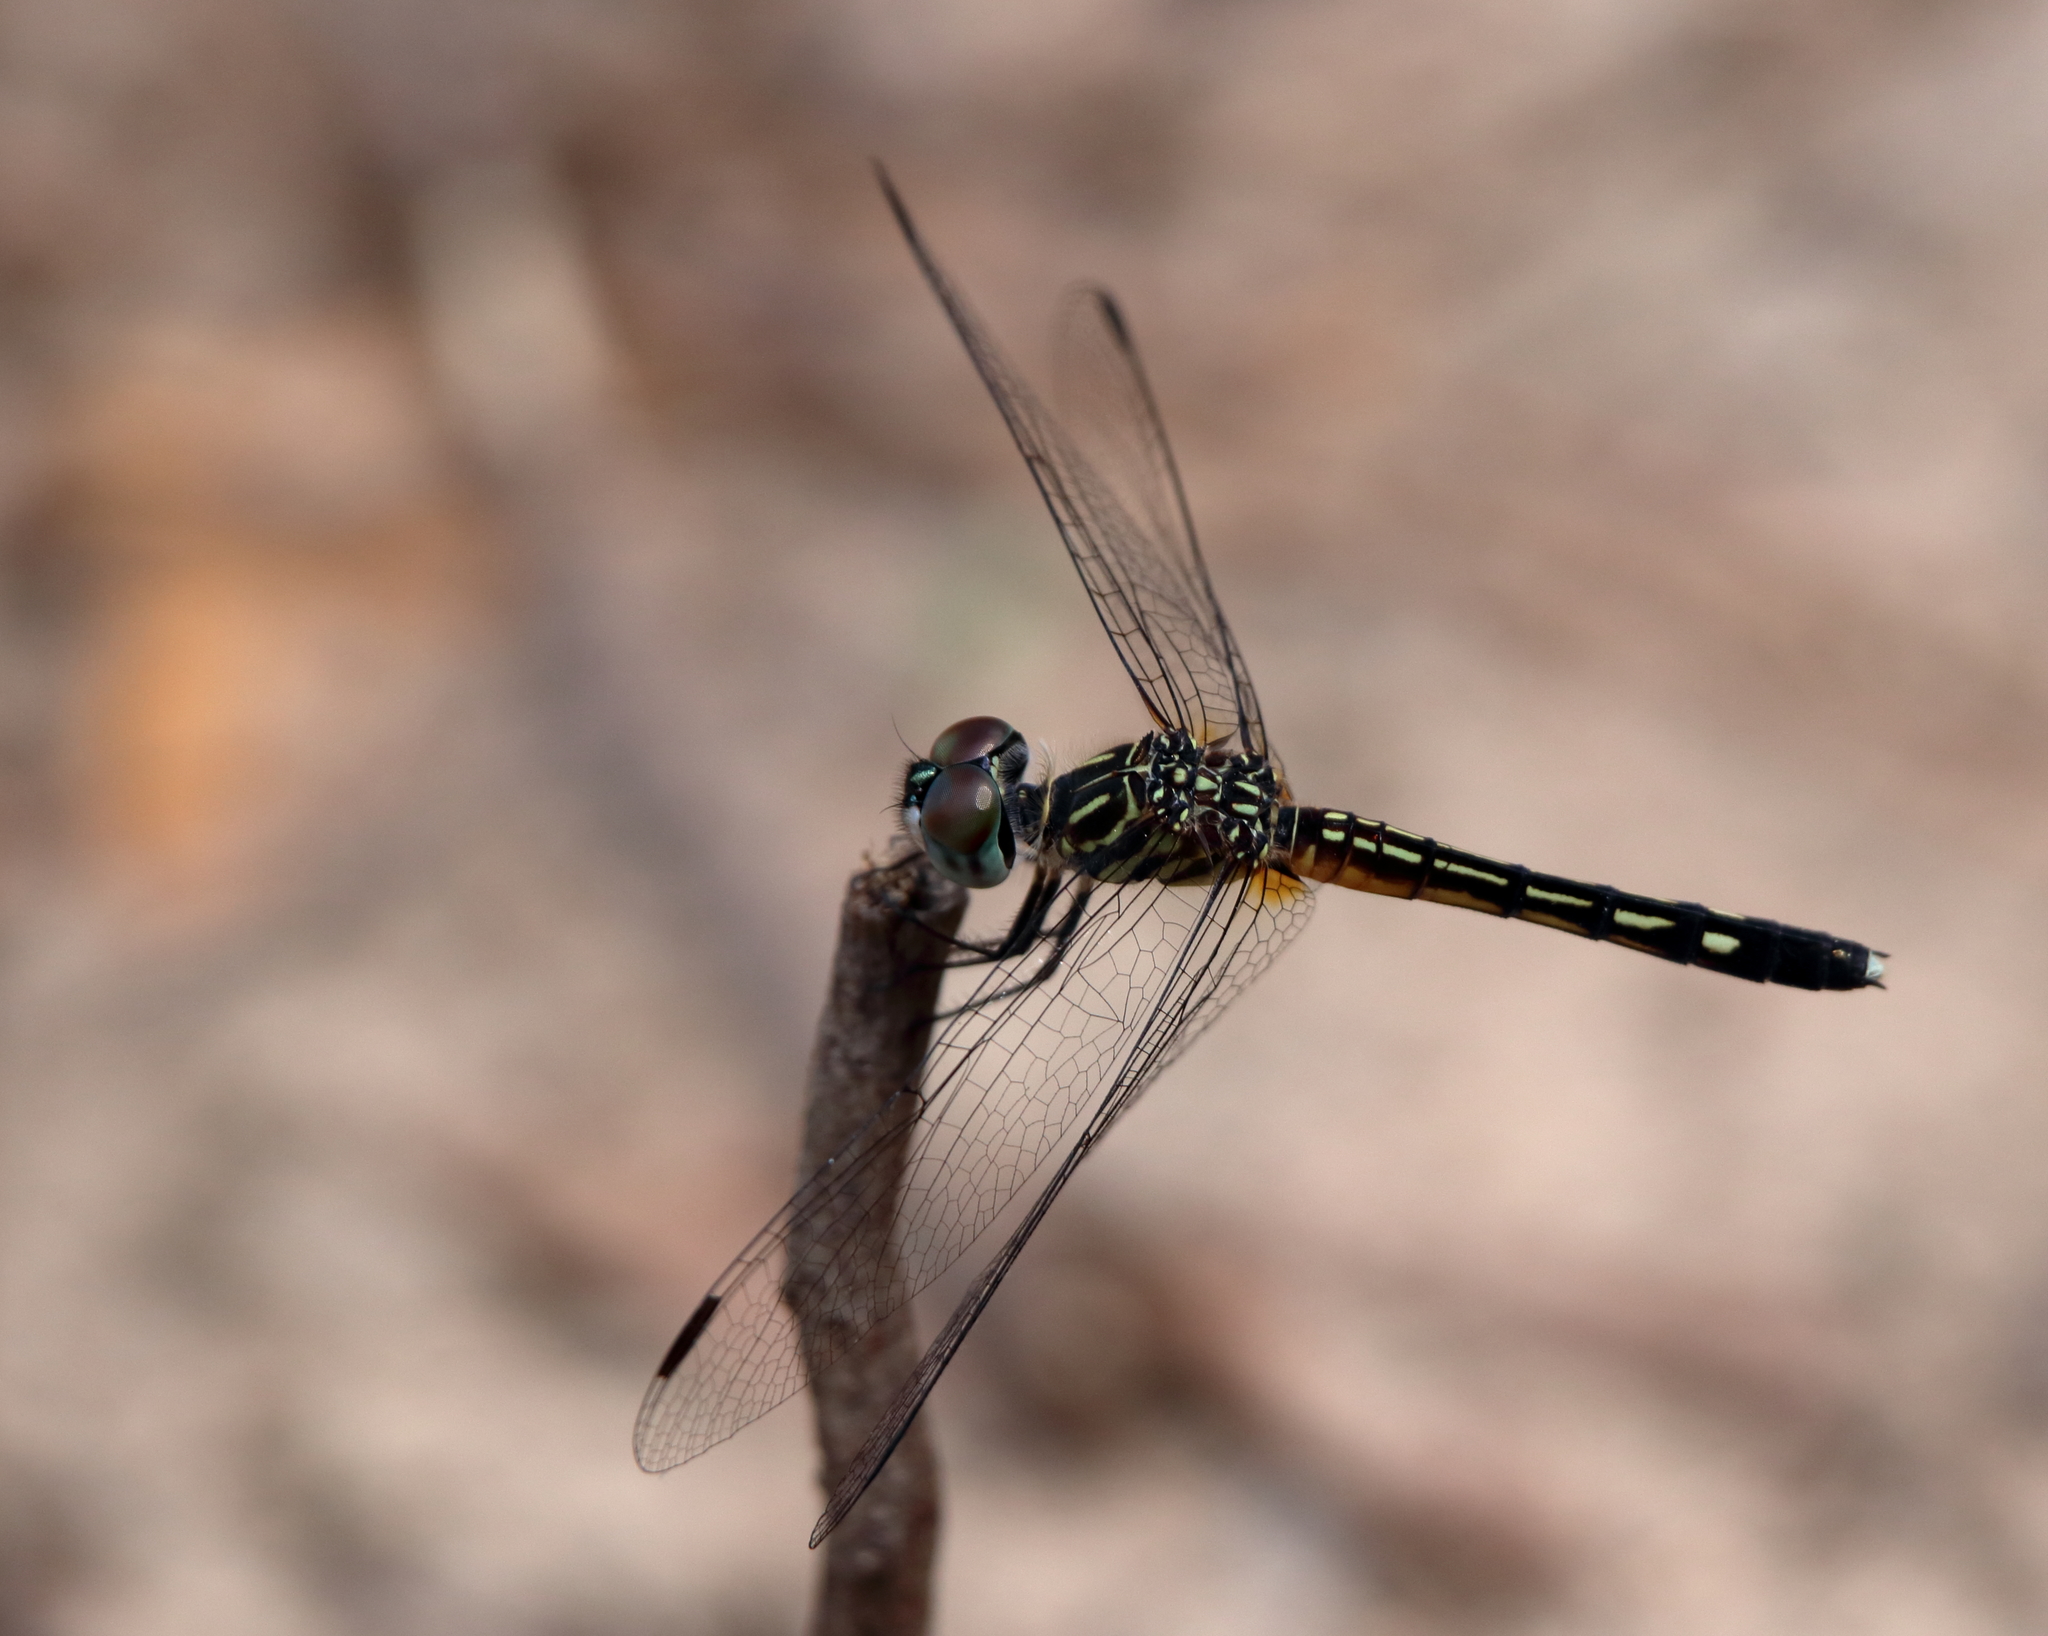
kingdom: Animalia
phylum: Arthropoda
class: Insecta
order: Odonata
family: Libellulidae
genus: Pachydiplax
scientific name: Pachydiplax longipennis
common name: Blue dasher
